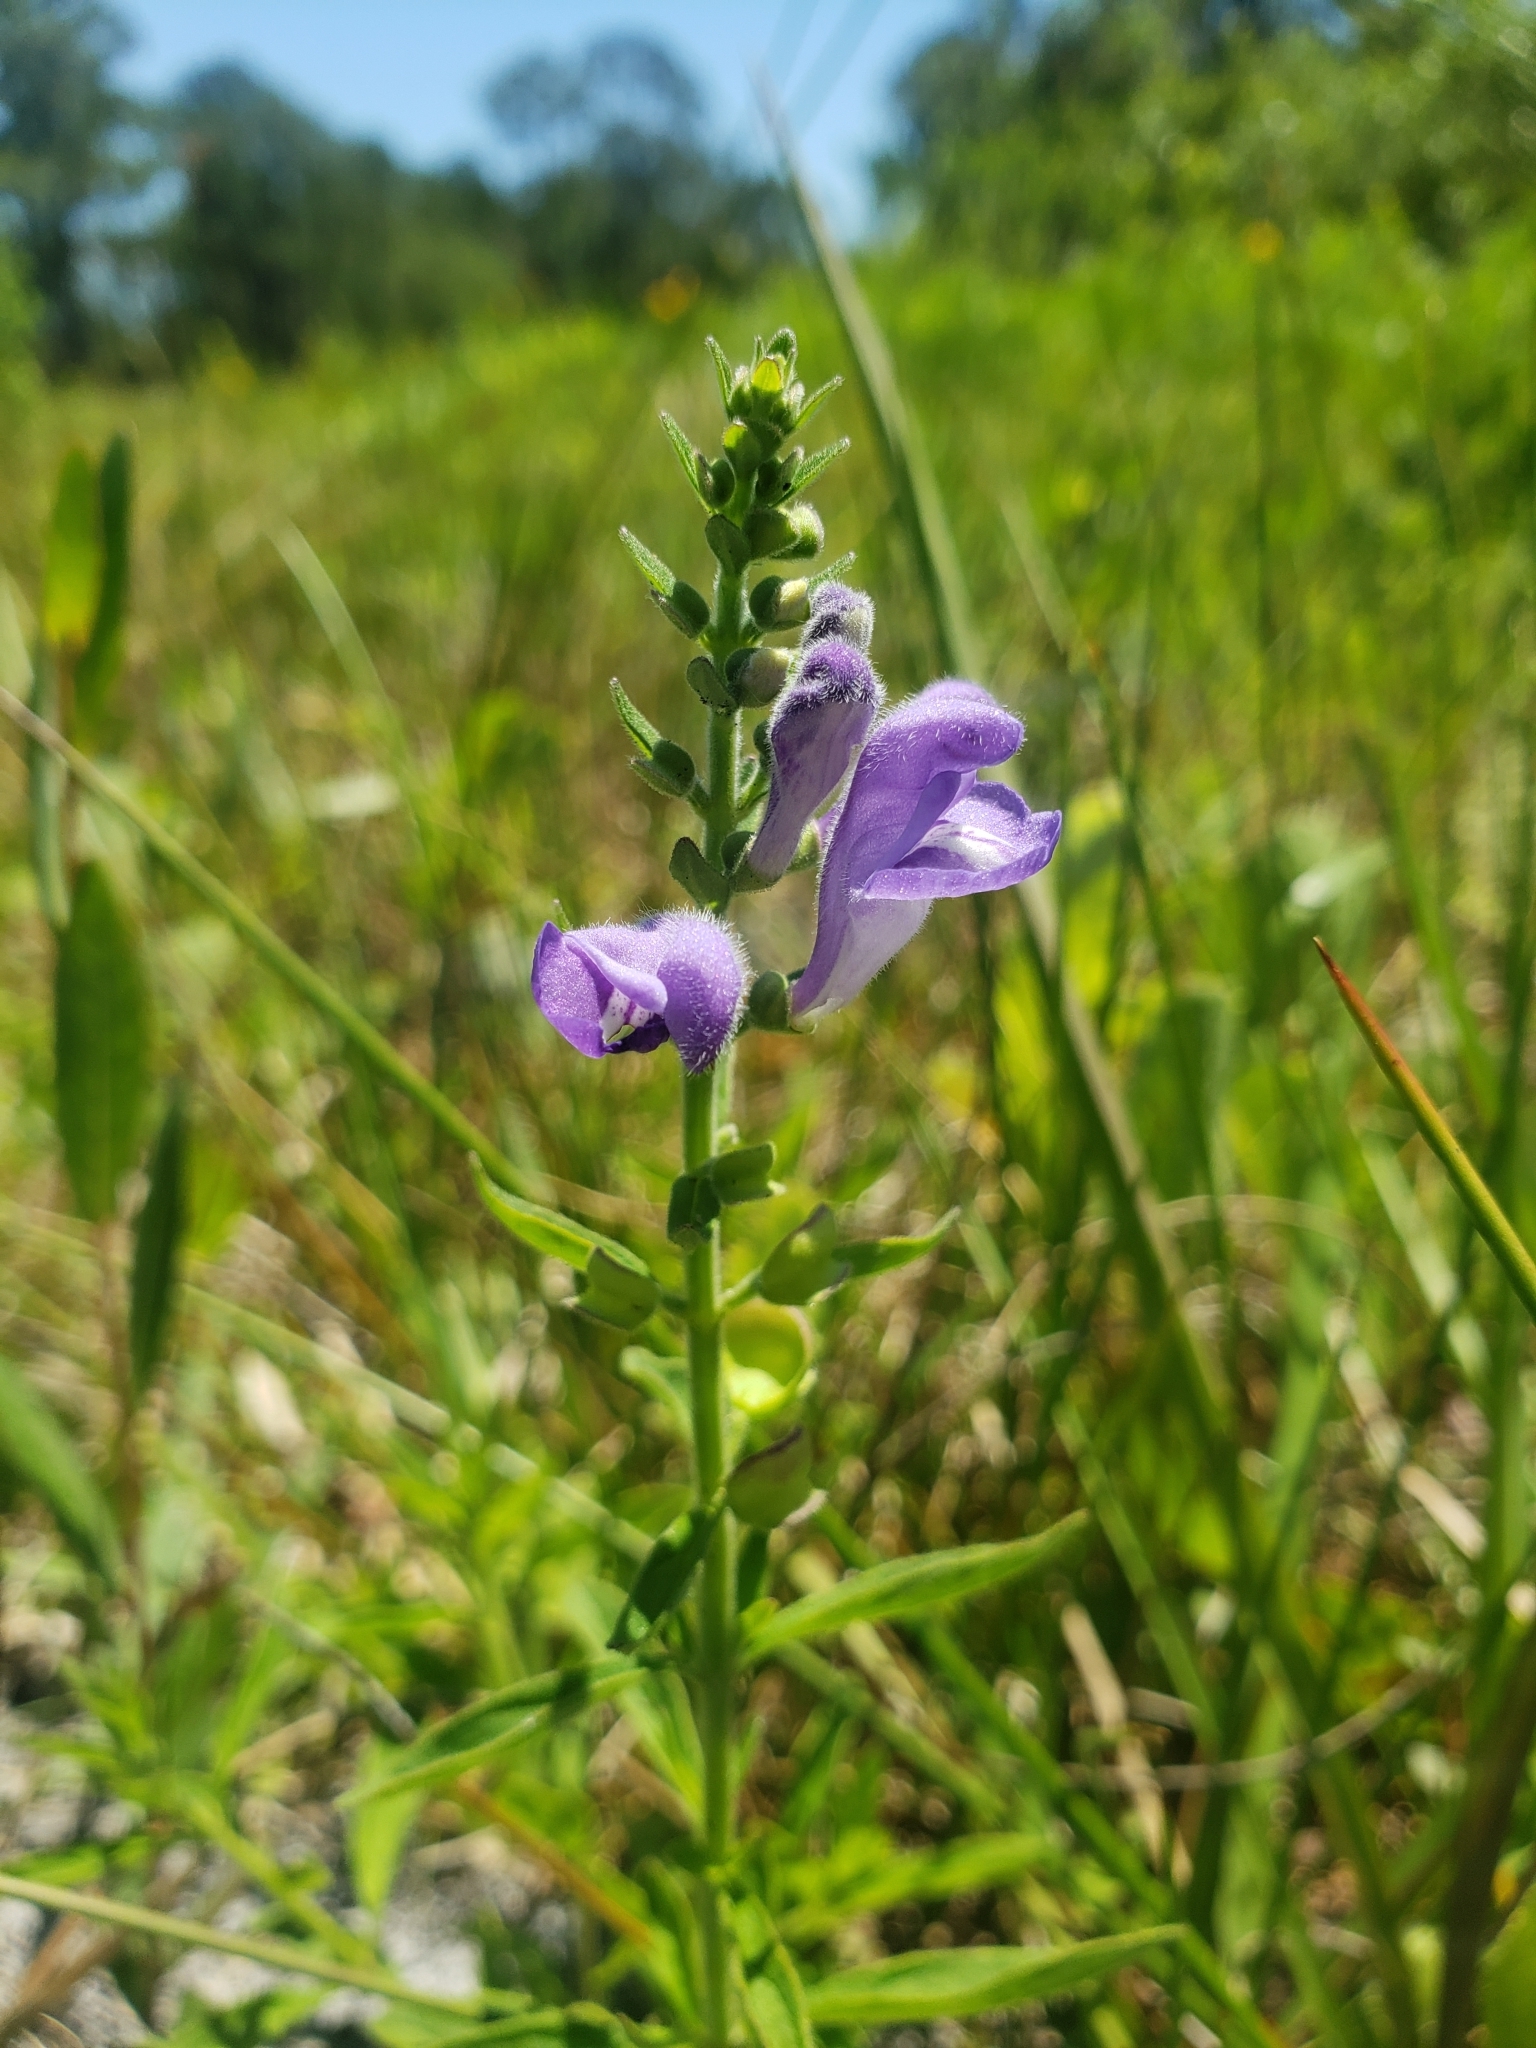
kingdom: Plantae
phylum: Tracheophyta
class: Magnoliopsida
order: Lamiales
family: Lamiaceae
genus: Scutellaria
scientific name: Scutellaria integrifolia
